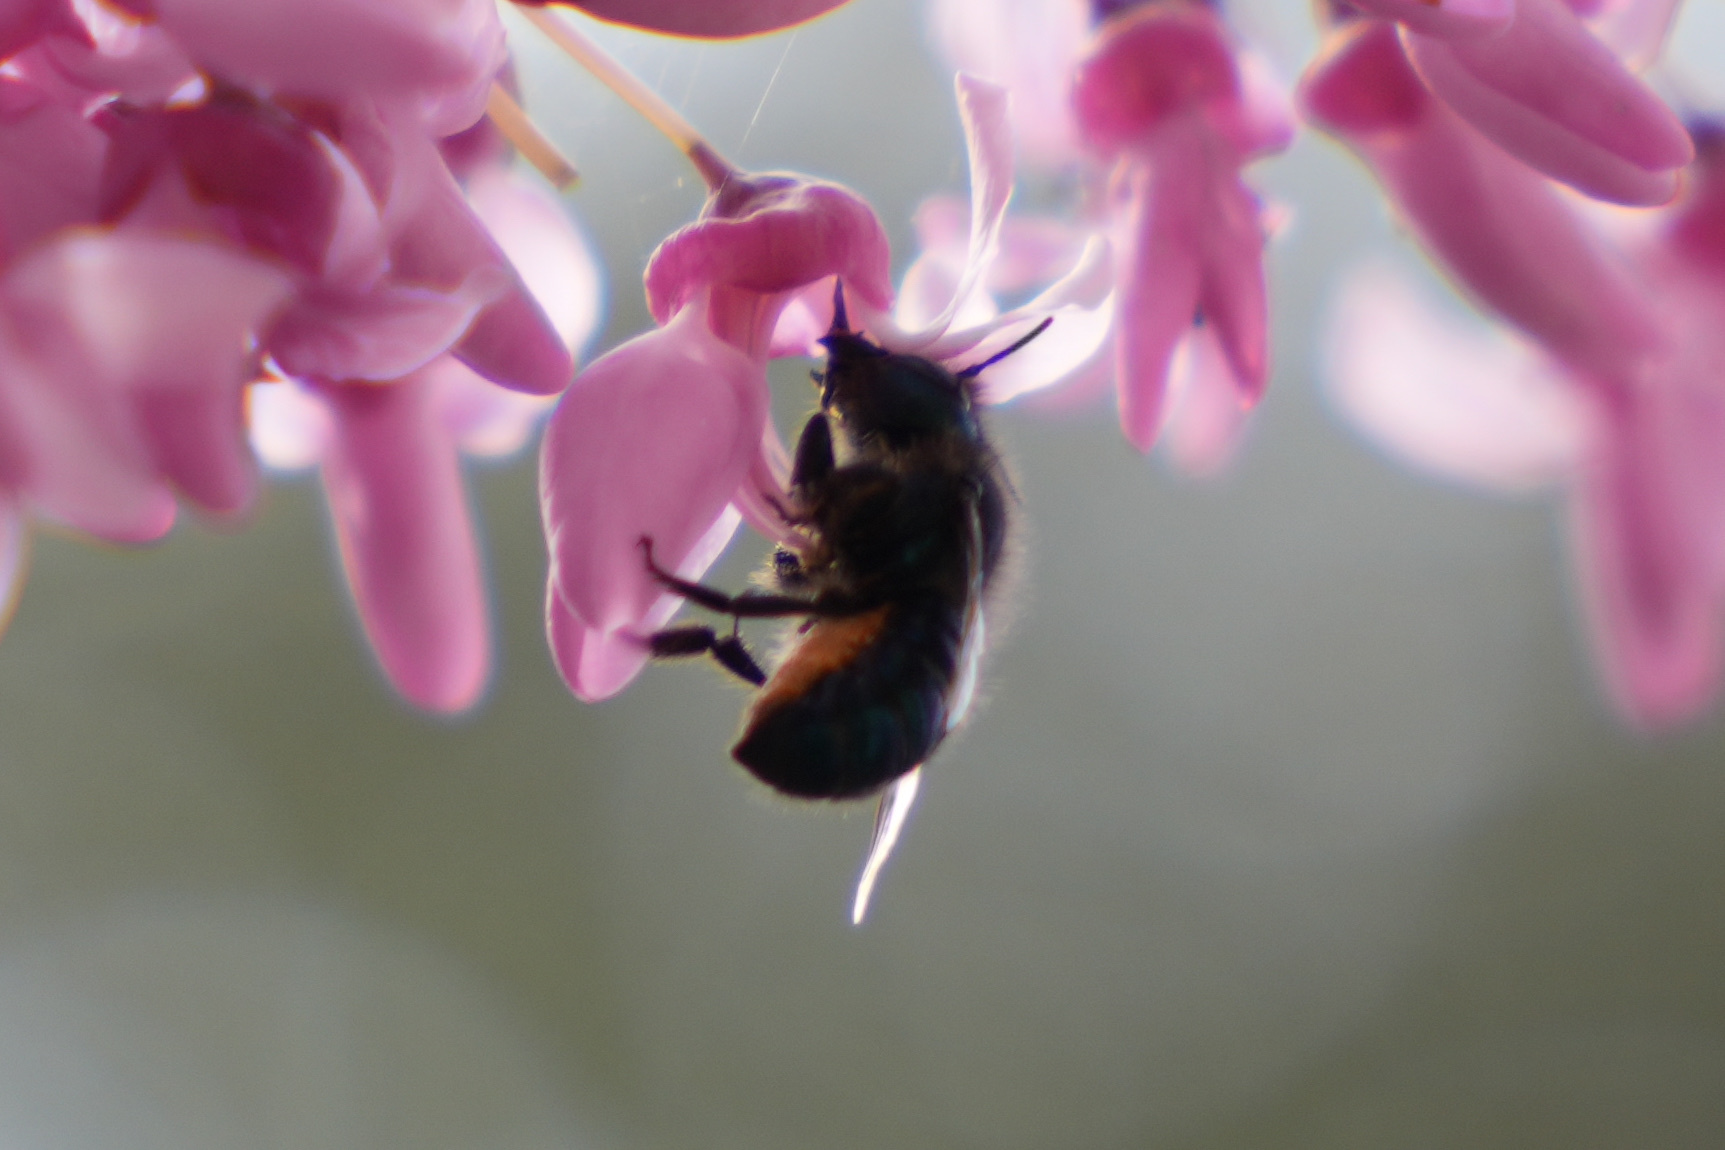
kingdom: Animalia
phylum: Arthropoda
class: Insecta
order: Hymenoptera
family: Megachilidae
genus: Osmia
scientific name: Osmia ribifloris
